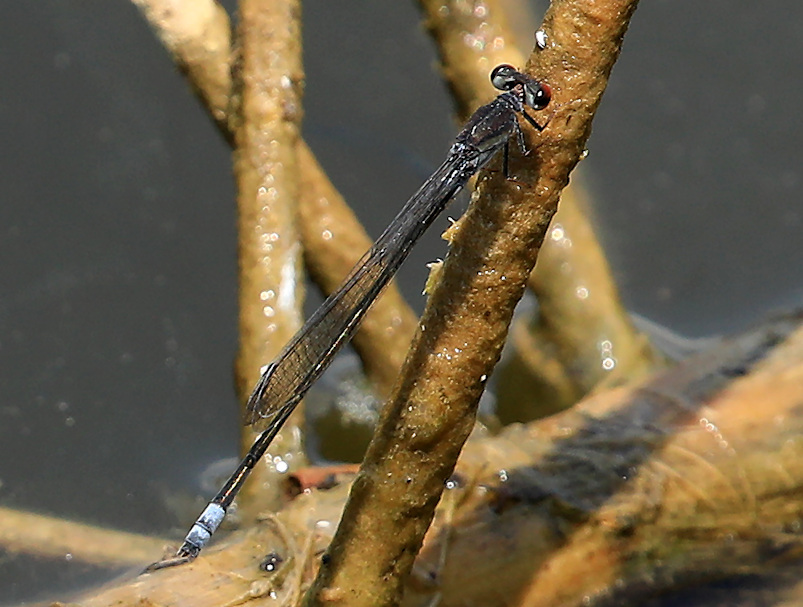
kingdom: Animalia
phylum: Arthropoda
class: Insecta
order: Odonata
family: Coenagrionidae
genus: Pseudagrion
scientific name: Pseudagrion hamoni
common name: Swarthy sprite
